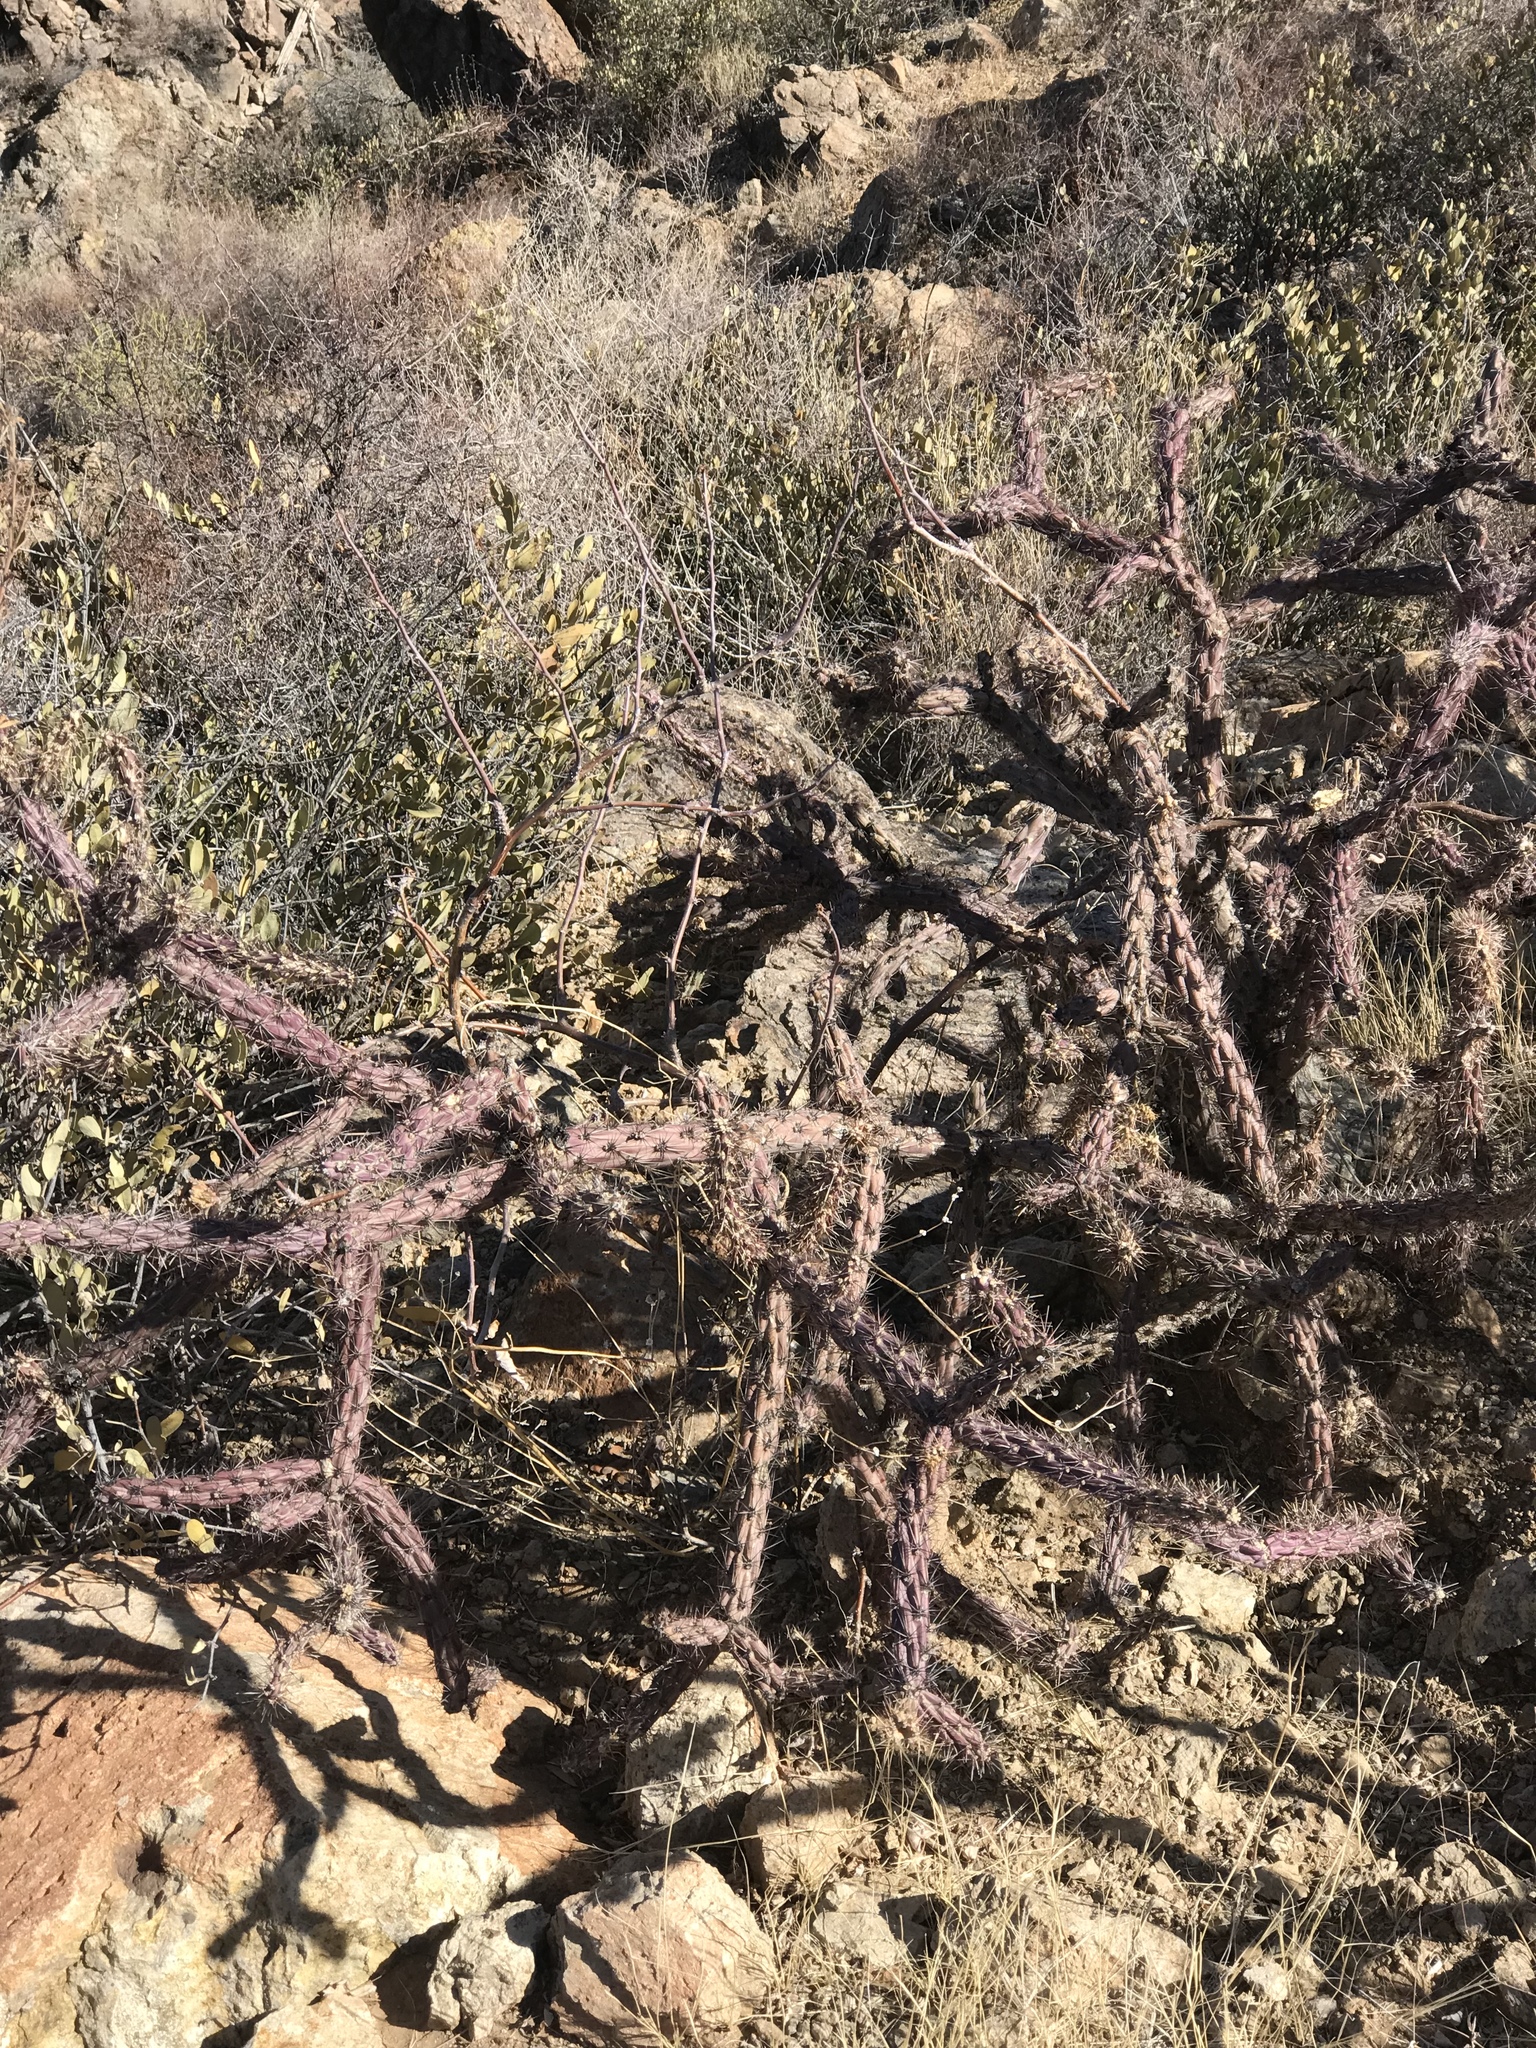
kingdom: Plantae
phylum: Tracheophyta
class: Magnoliopsida
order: Caryophyllales
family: Cactaceae
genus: Cylindropuntia
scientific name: Cylindropuntia thurberi
